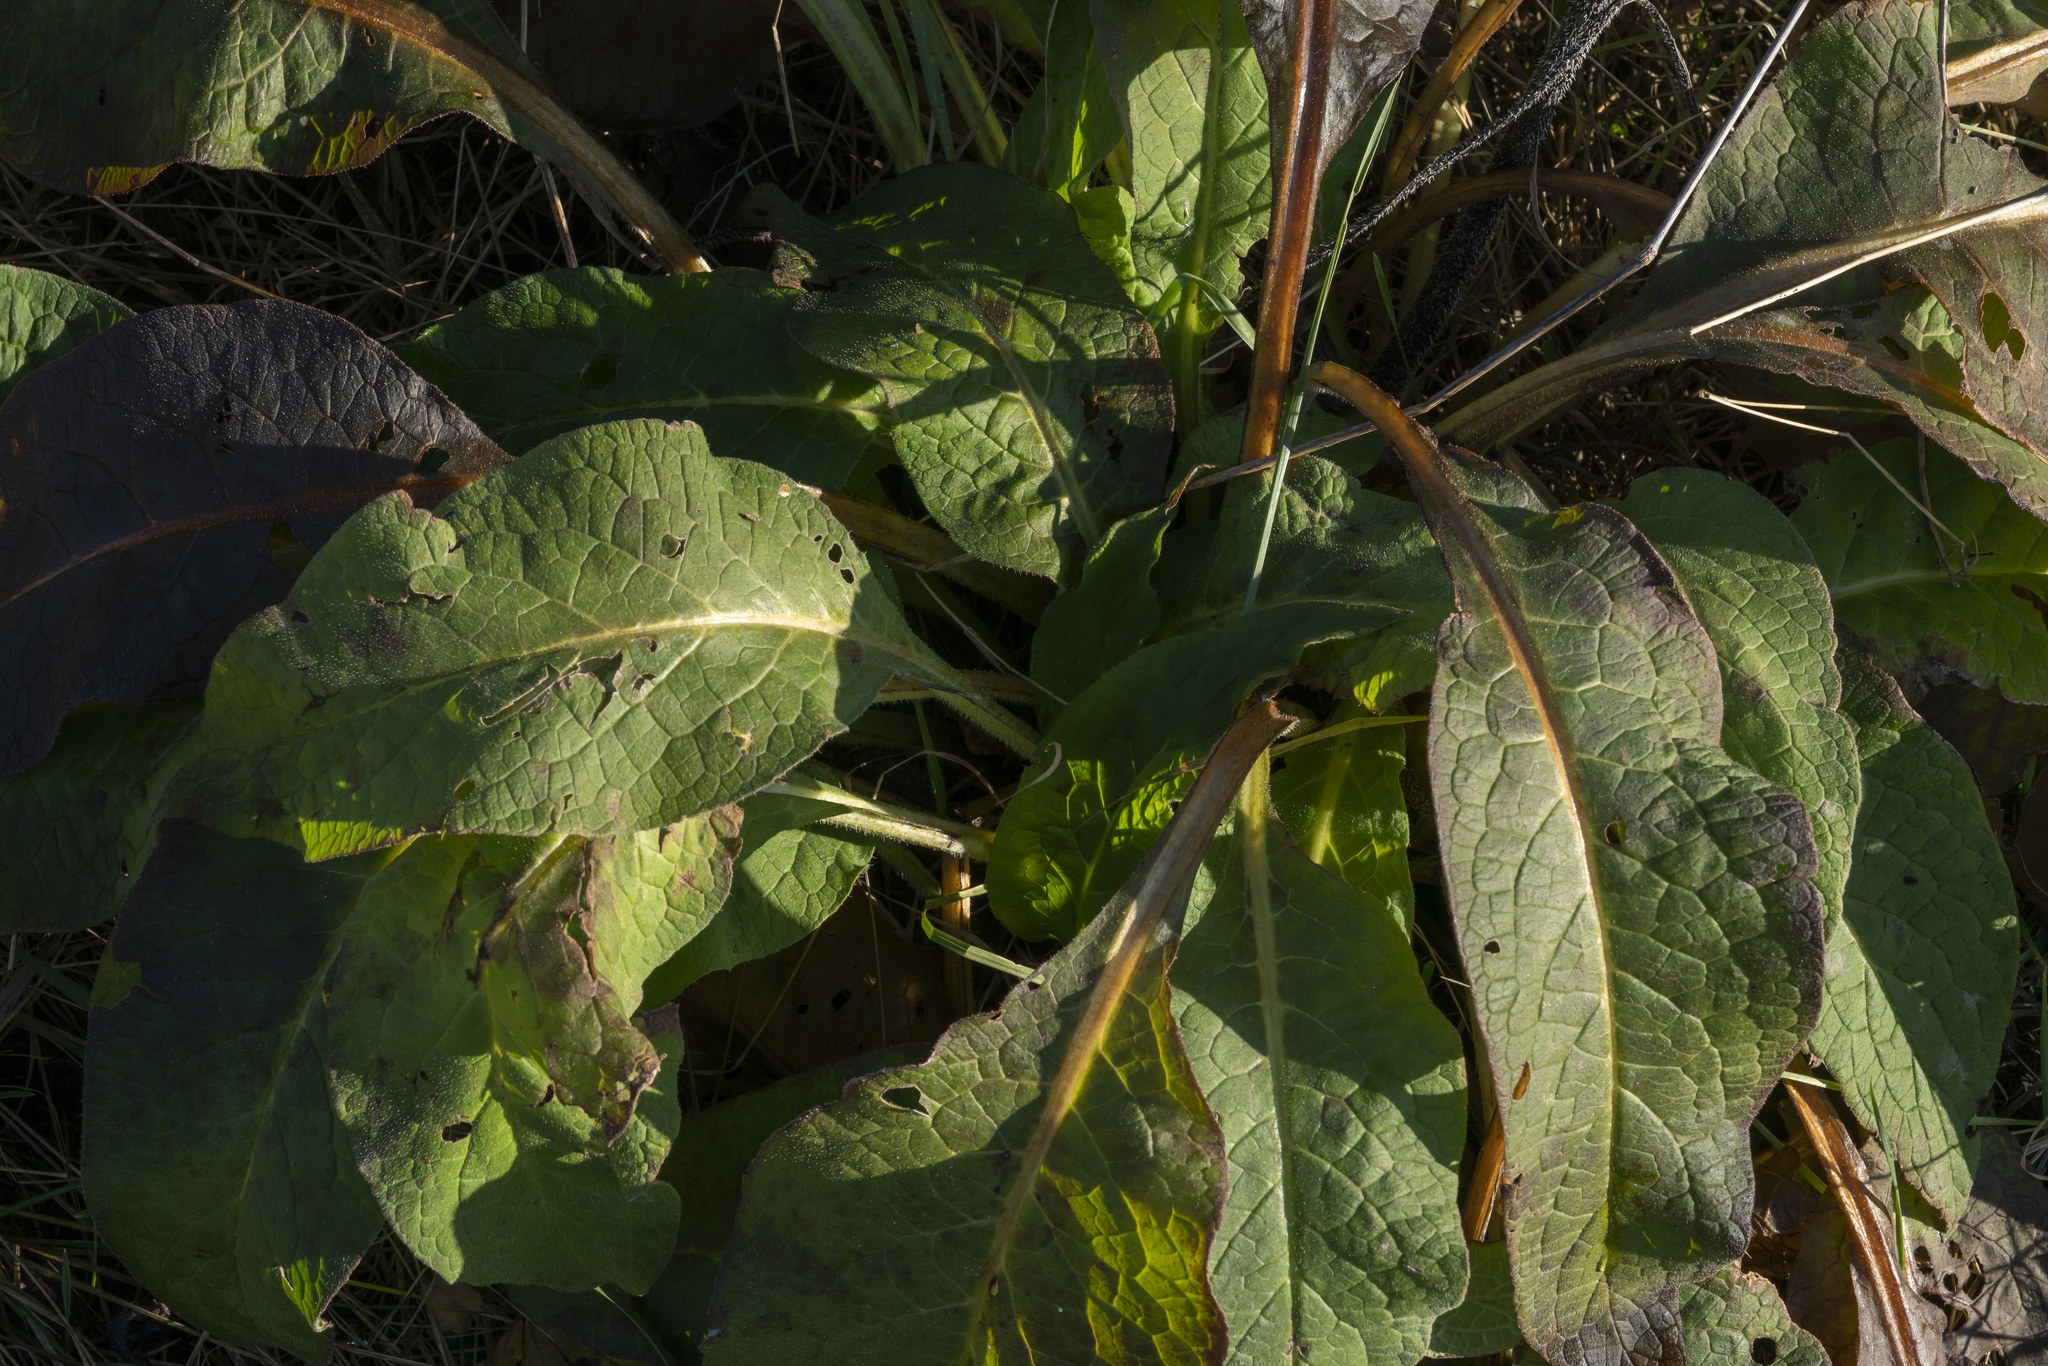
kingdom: Plantae
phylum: Tracheophyta
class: Magnoliopsida
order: Caryophyllales
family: Polygonaceae
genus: Rumex
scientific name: Rumex obtusifolius
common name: Bitter dock
